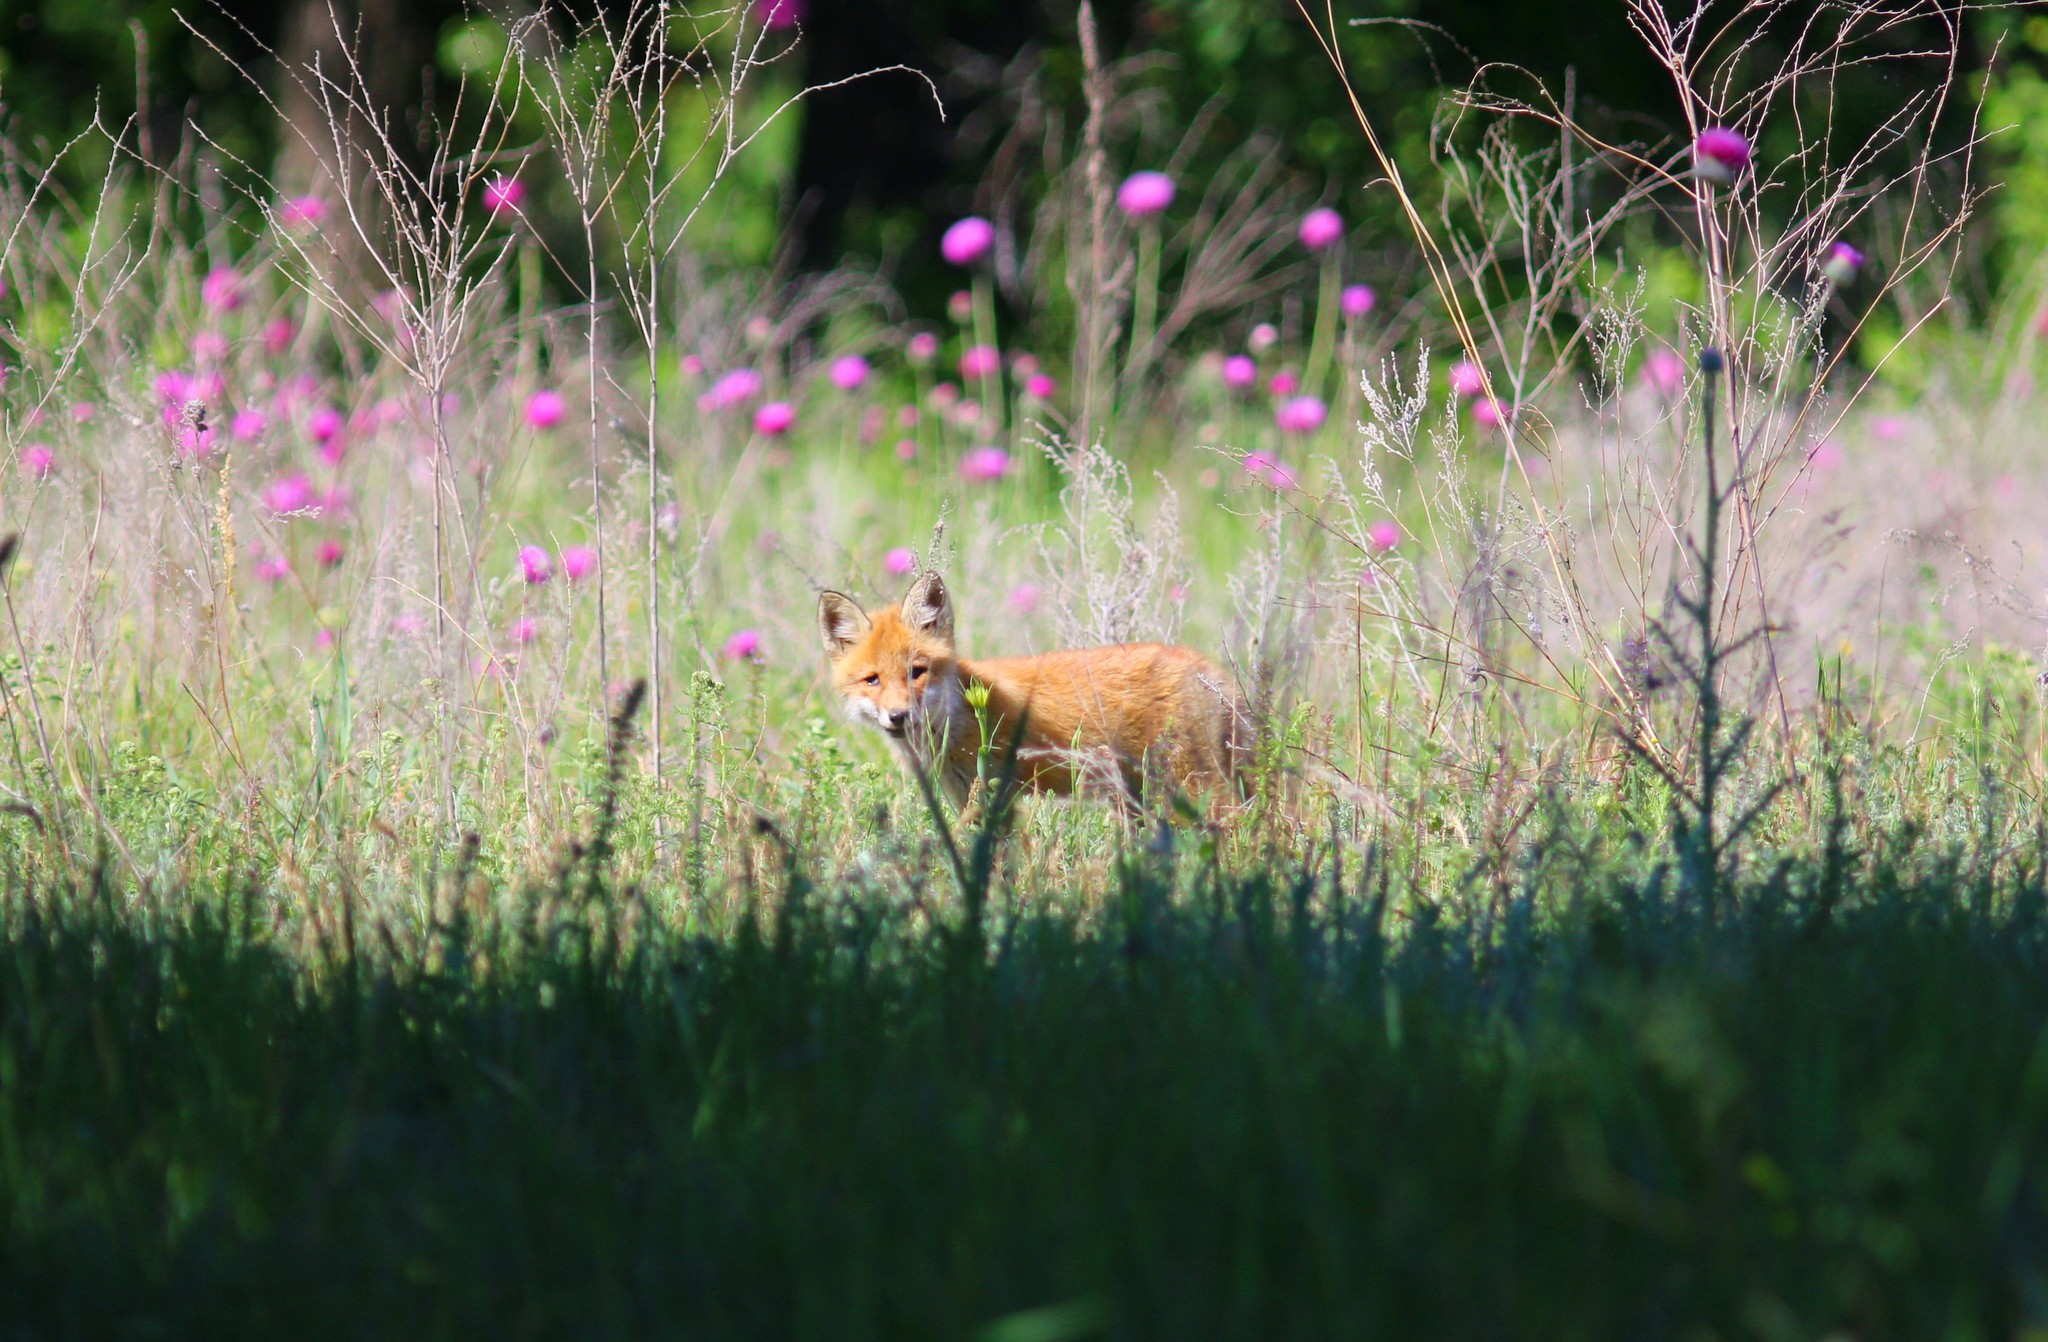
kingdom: Animalia
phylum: Chordata
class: Mammalia
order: Carnivora
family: Canidae
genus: Vulpes
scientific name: Vulpes vulpes
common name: Red fox
